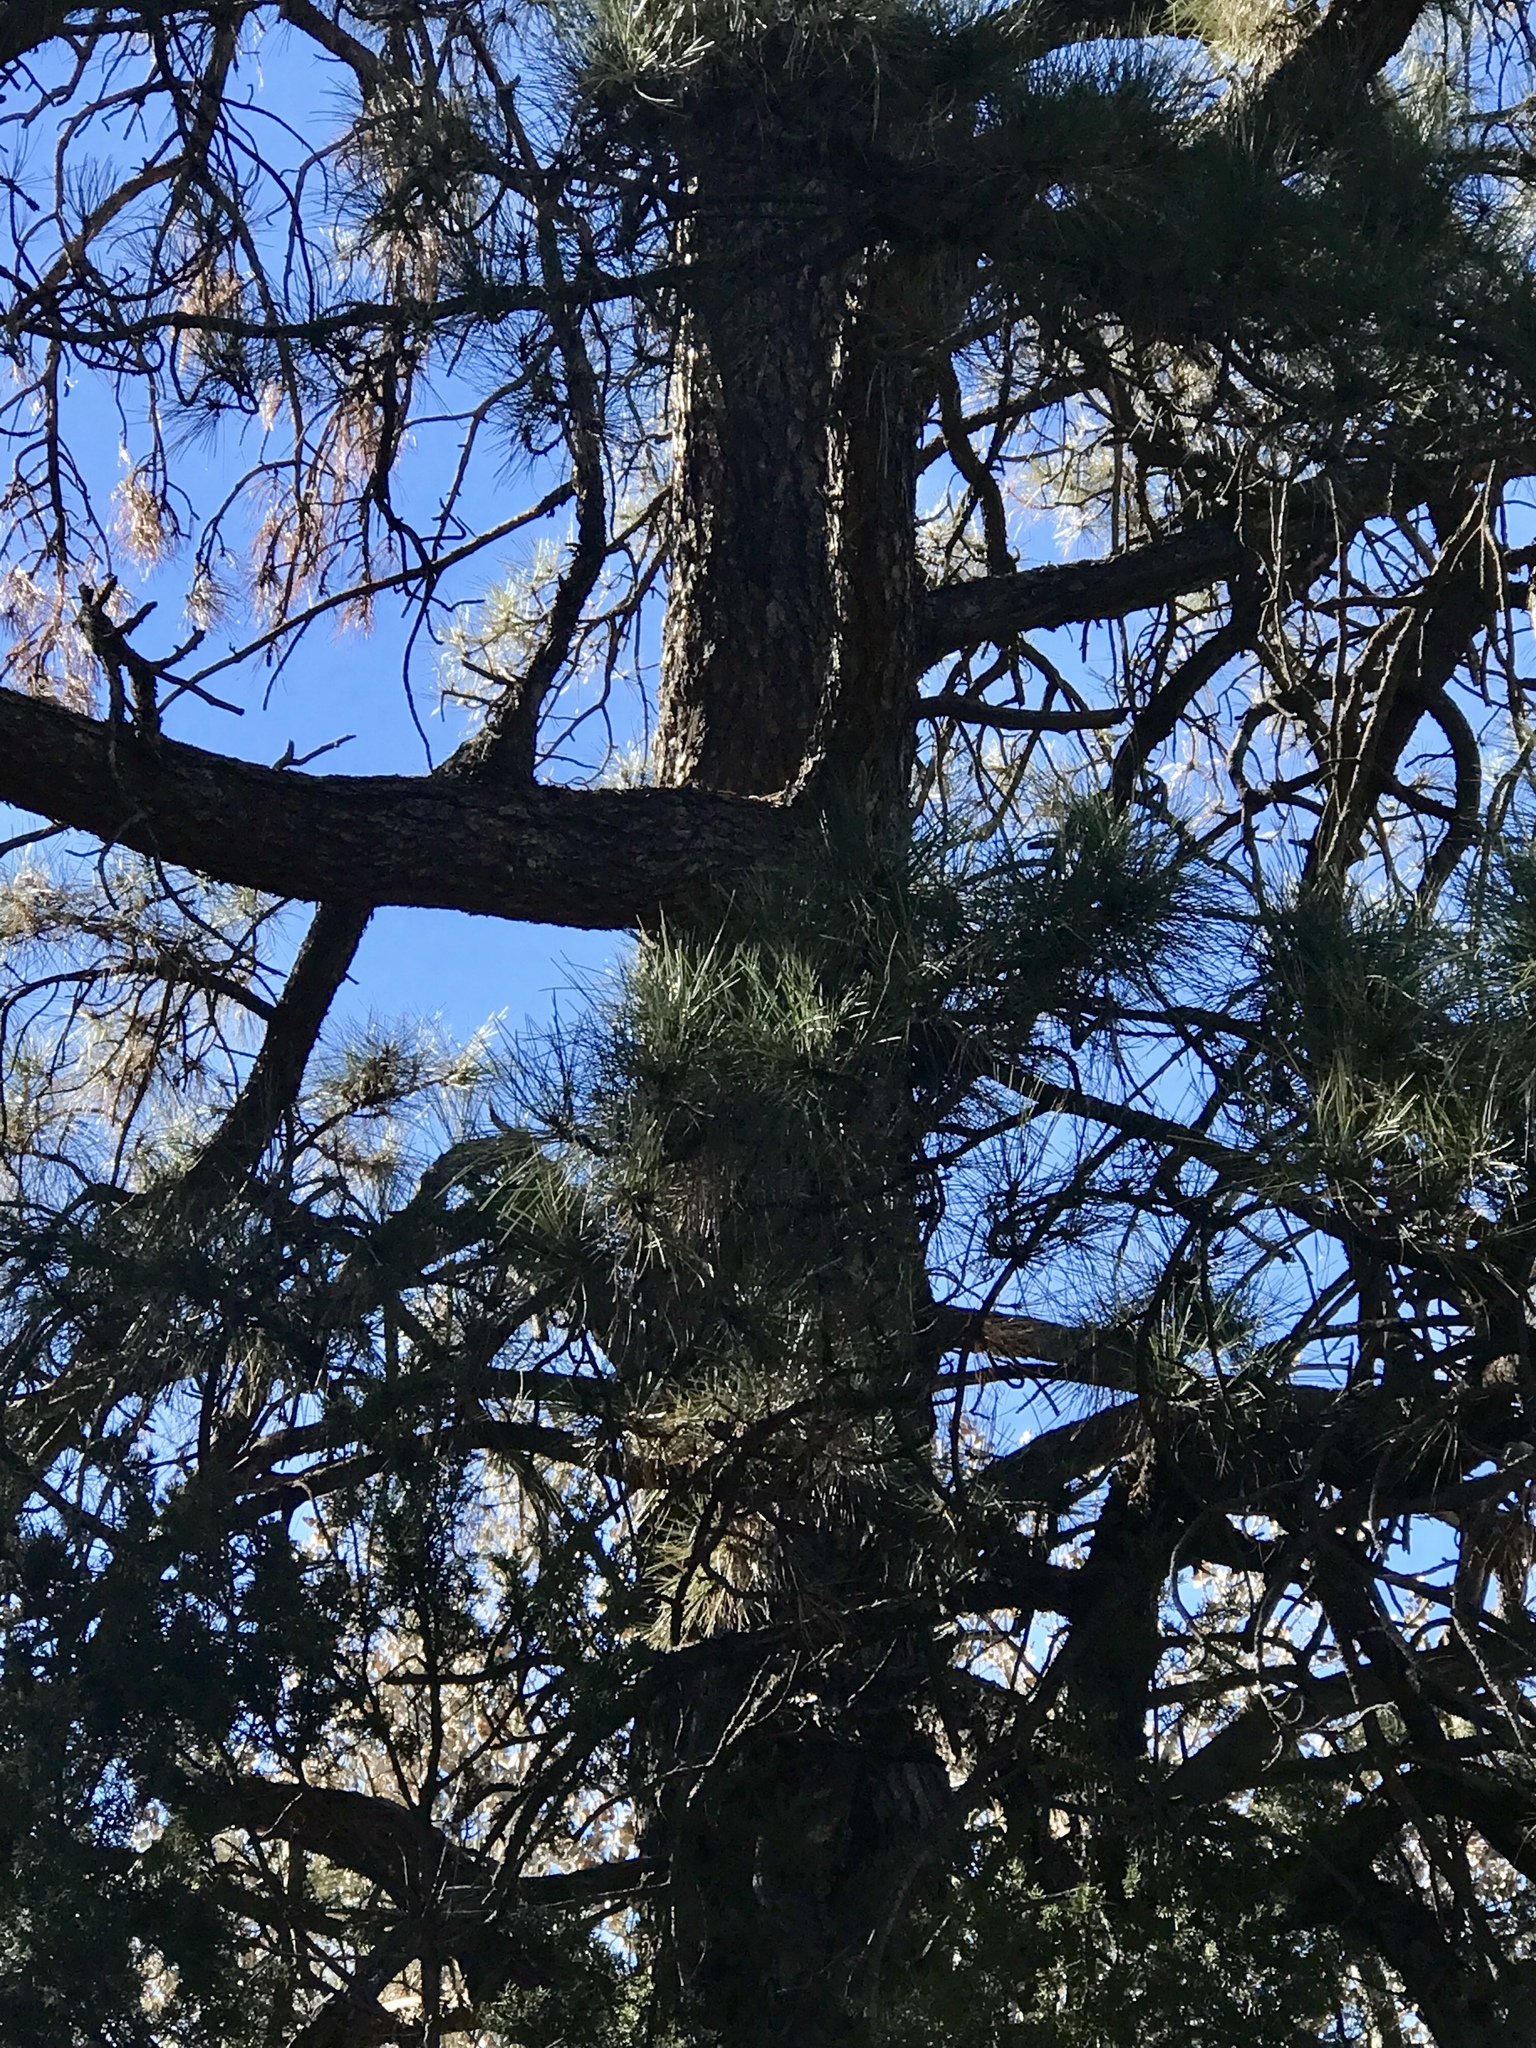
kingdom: Plantae
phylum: Tracheophyta
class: Pinopsida
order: Pinales
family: Pinaceae
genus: Pinus
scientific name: Pinus ponderosa
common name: Western yellow-pine
